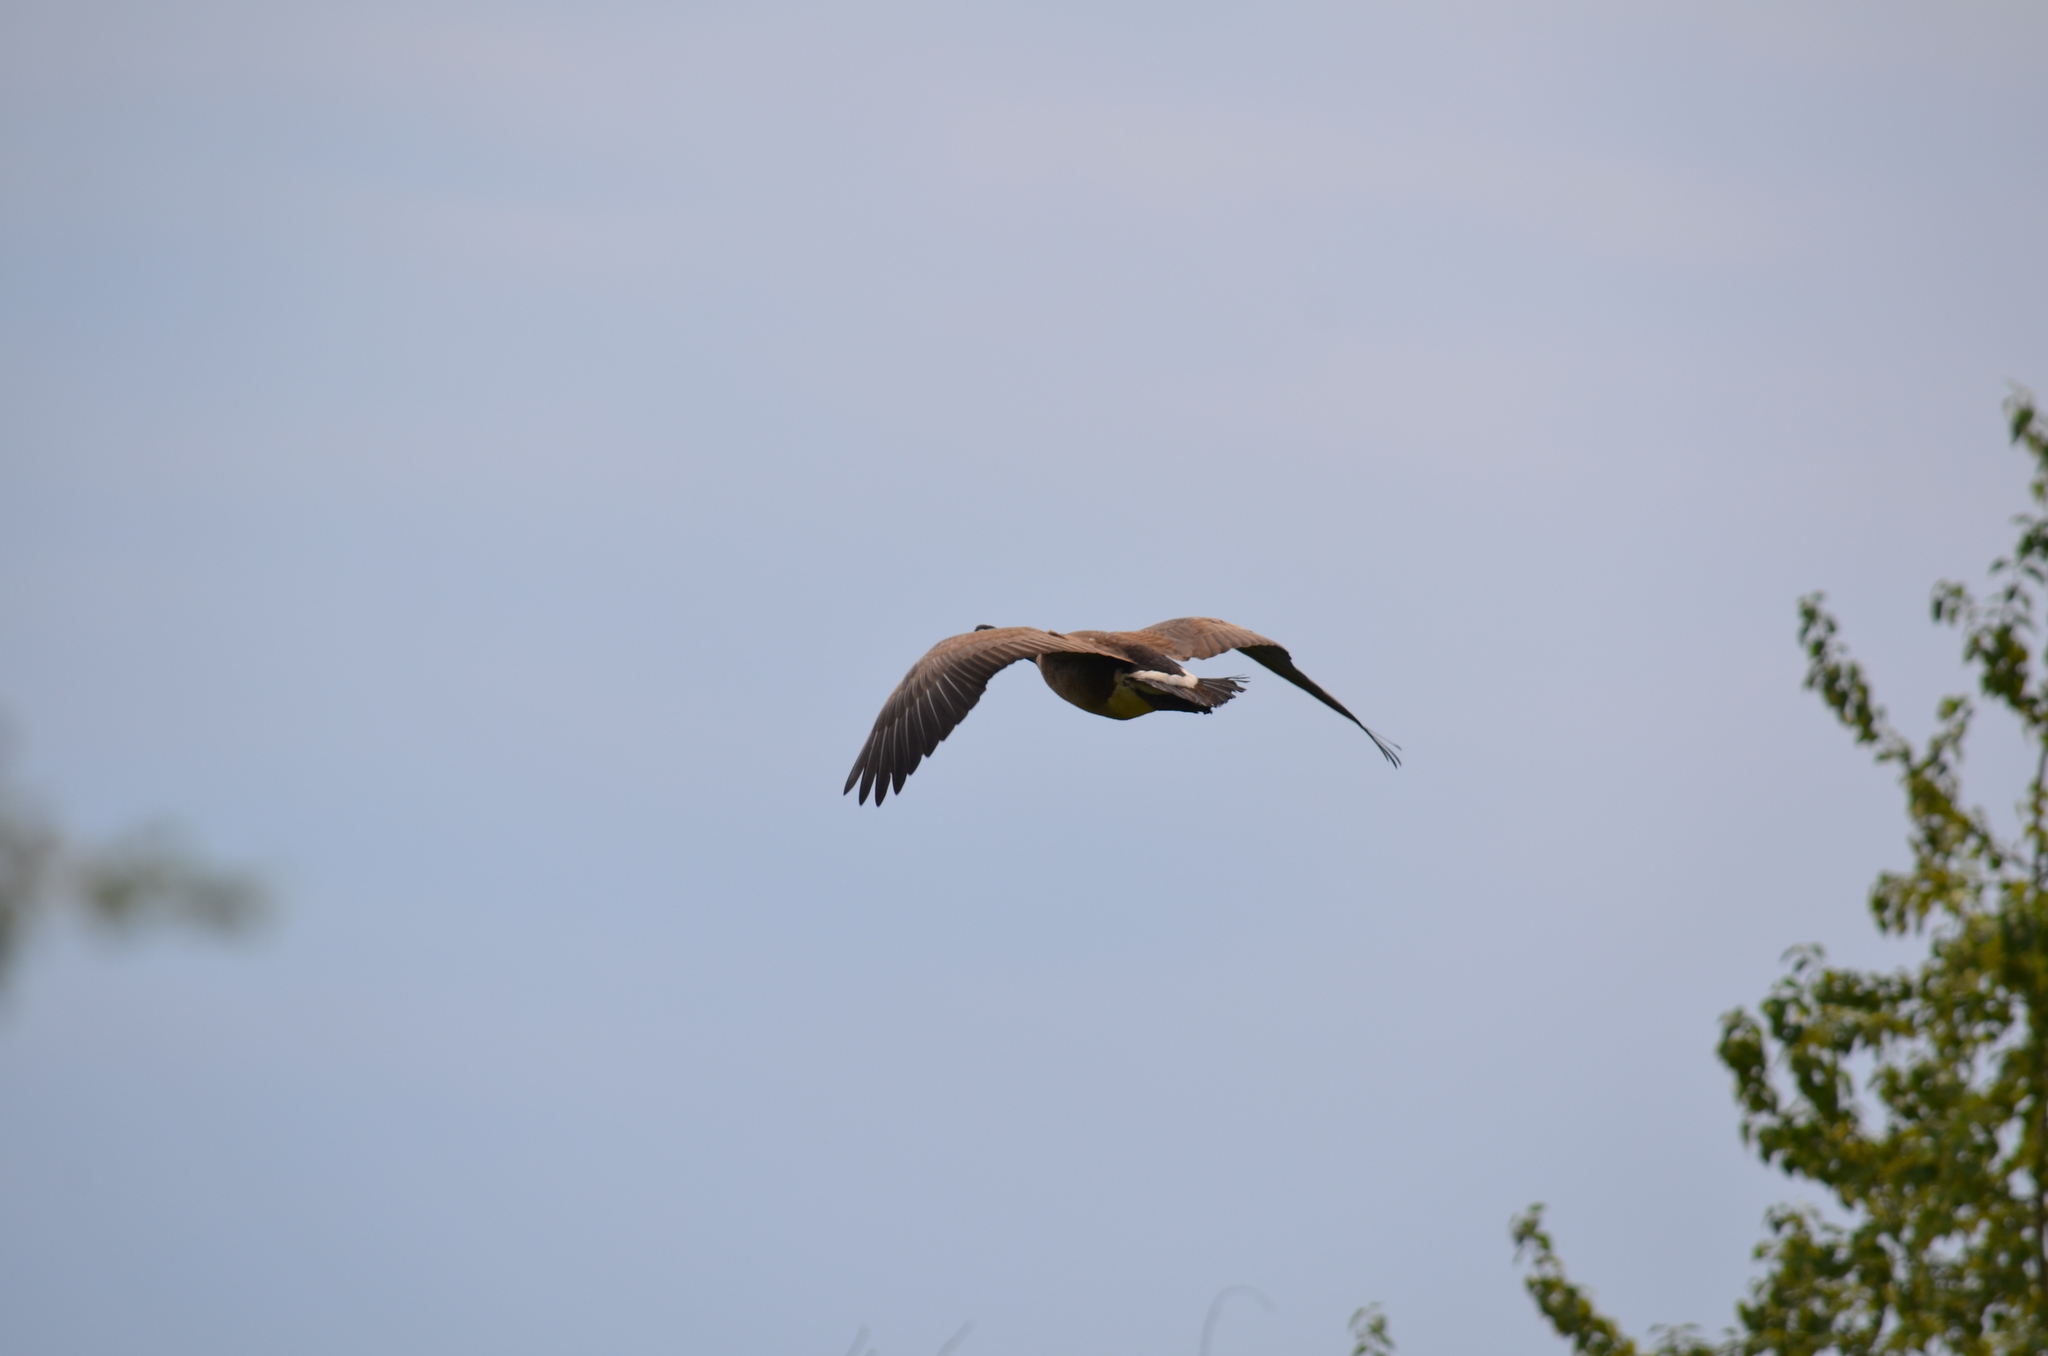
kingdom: Animalia
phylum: Chordata
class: Aves
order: Anseriformes
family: Anatidae
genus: Branta
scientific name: Branta canadensis
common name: Canada goose
